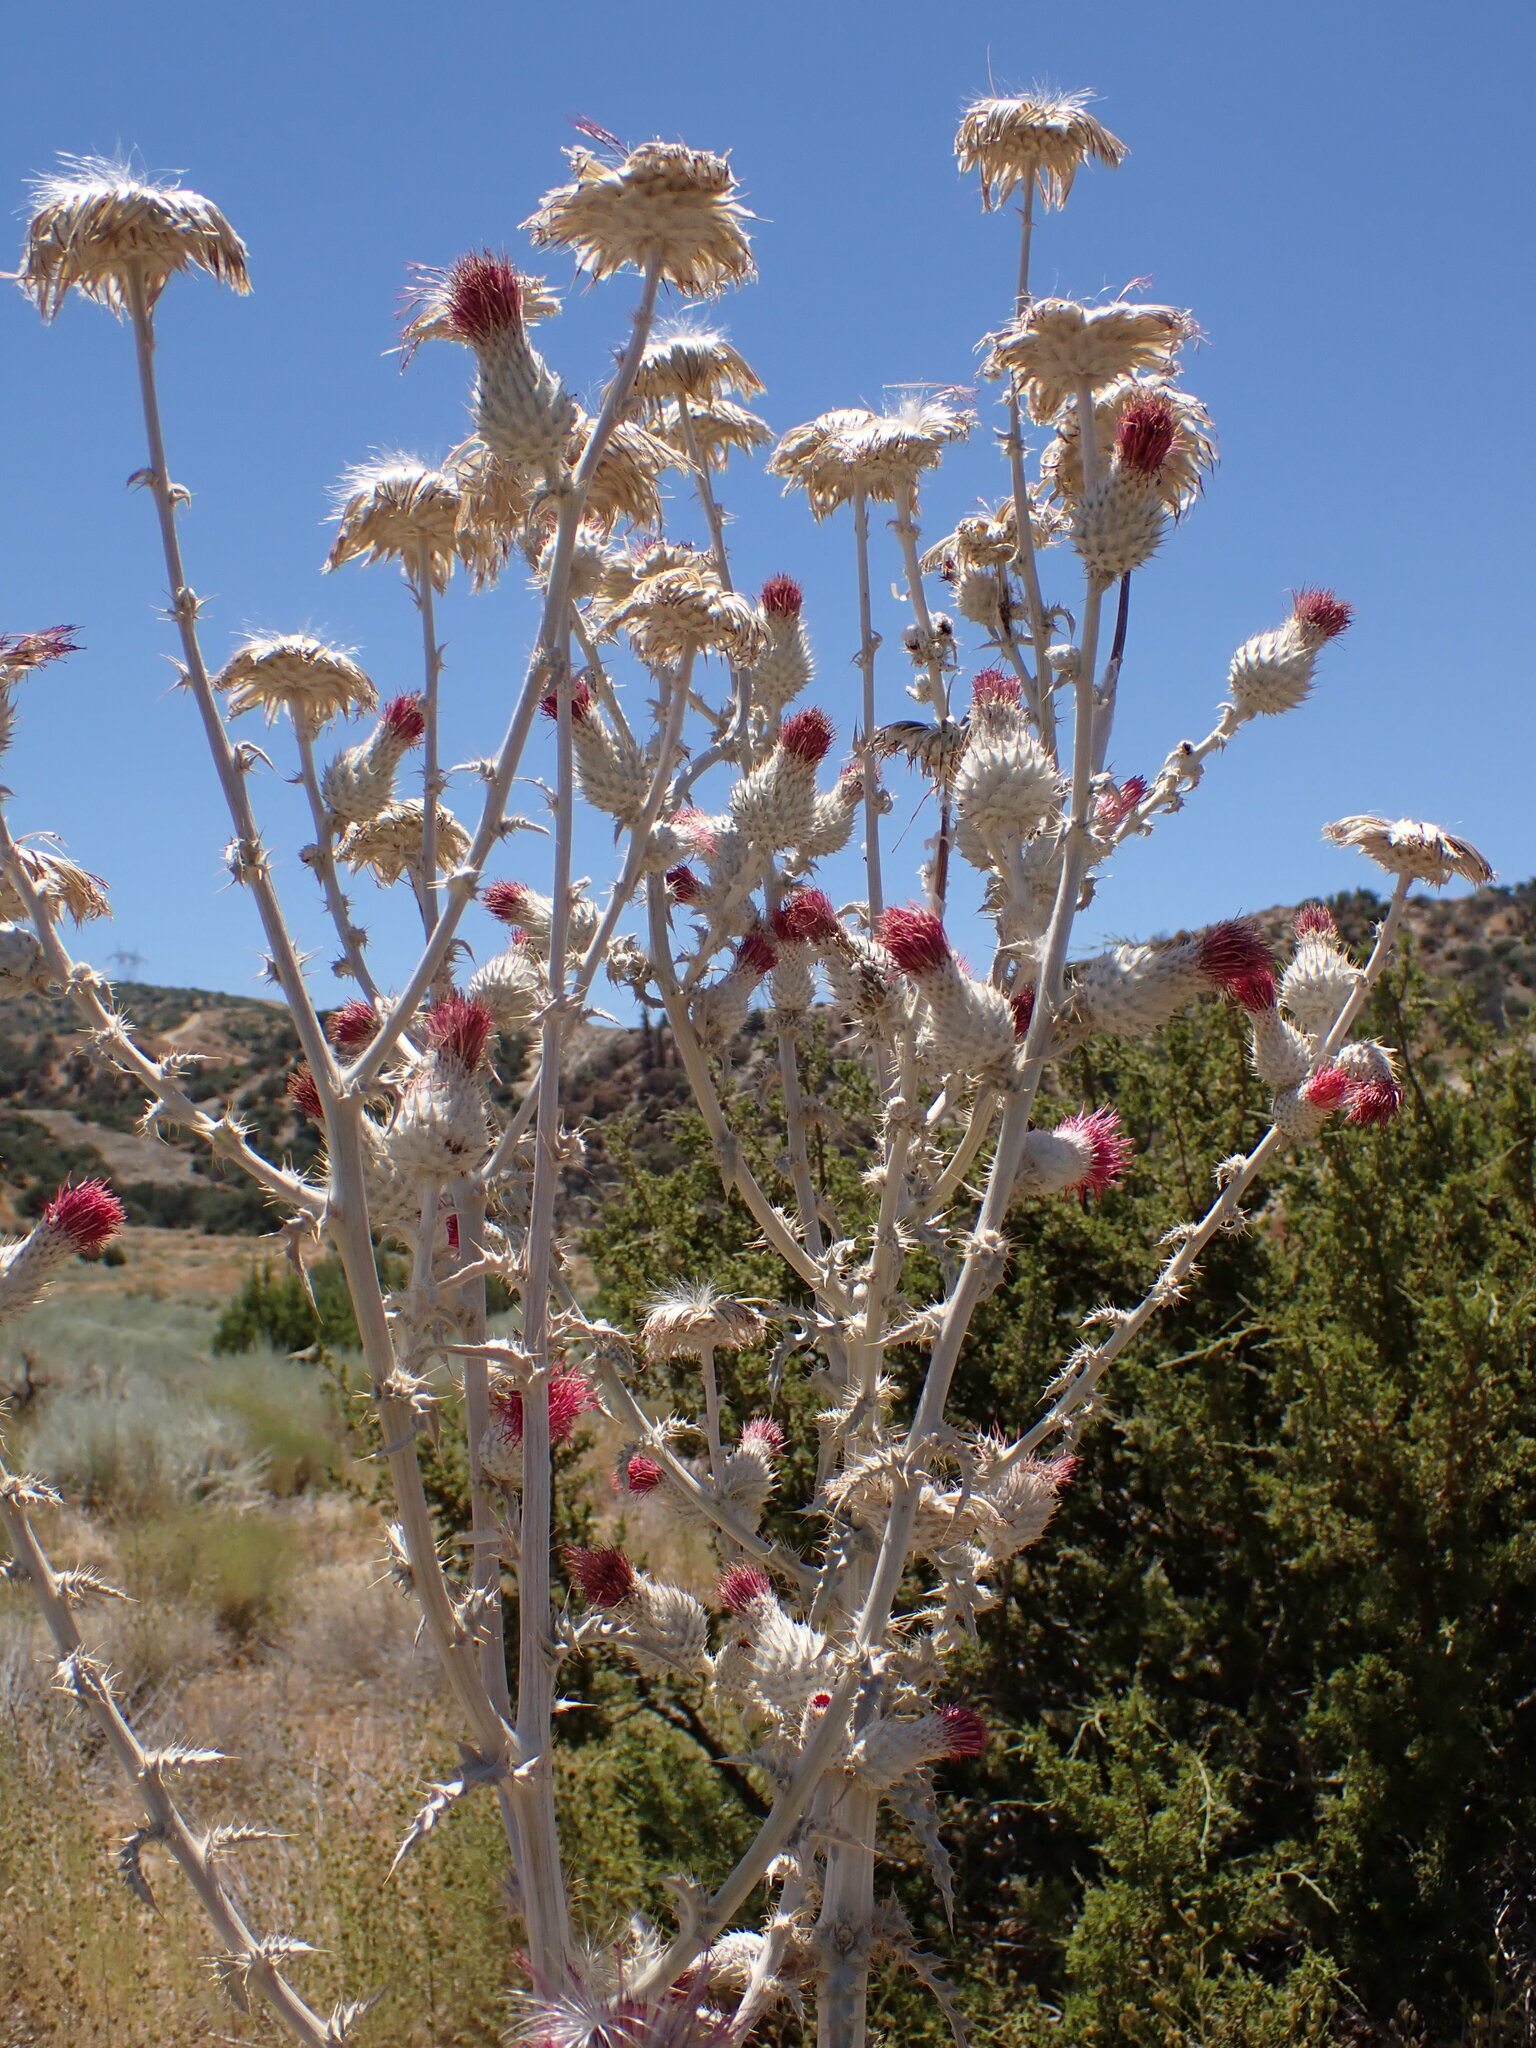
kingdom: Plantae
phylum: Tracheophyta
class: Magnoliopsida
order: Asterales
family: Asteraceae
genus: Cirsium
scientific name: Cirsium occidentale
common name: Western thistle
